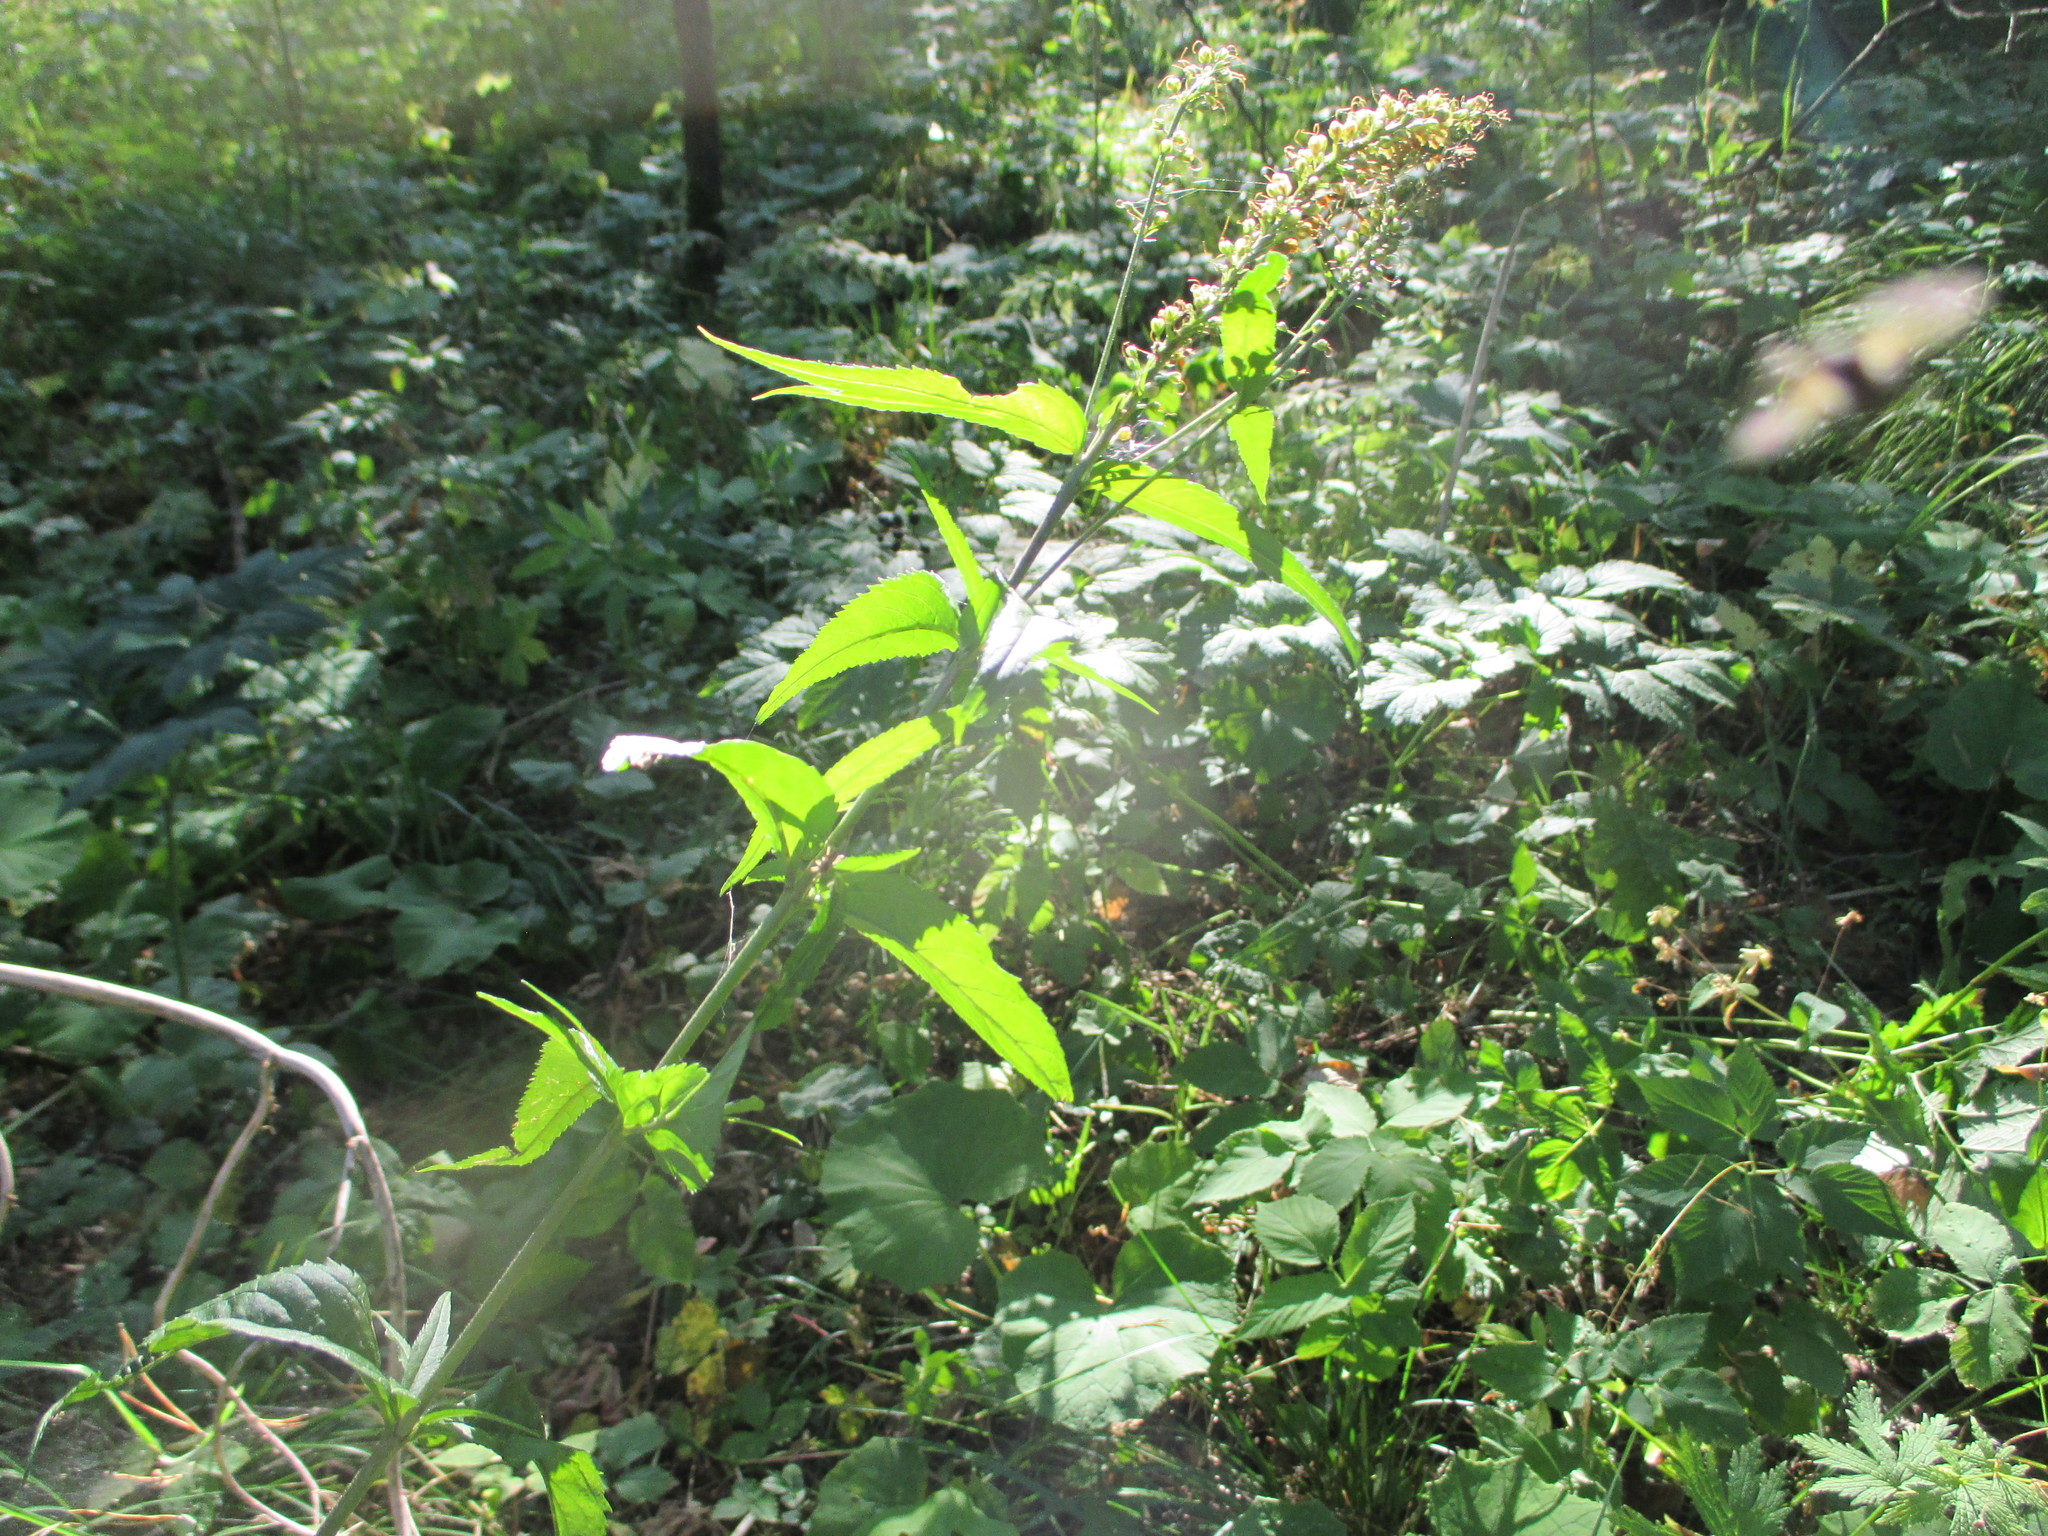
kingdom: Plantae
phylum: Tracheophyta
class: Magnoliopsida
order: Lamiales
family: Plantaginaceae
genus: Veronica
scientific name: Veronica longifolia
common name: Garden speedwell
